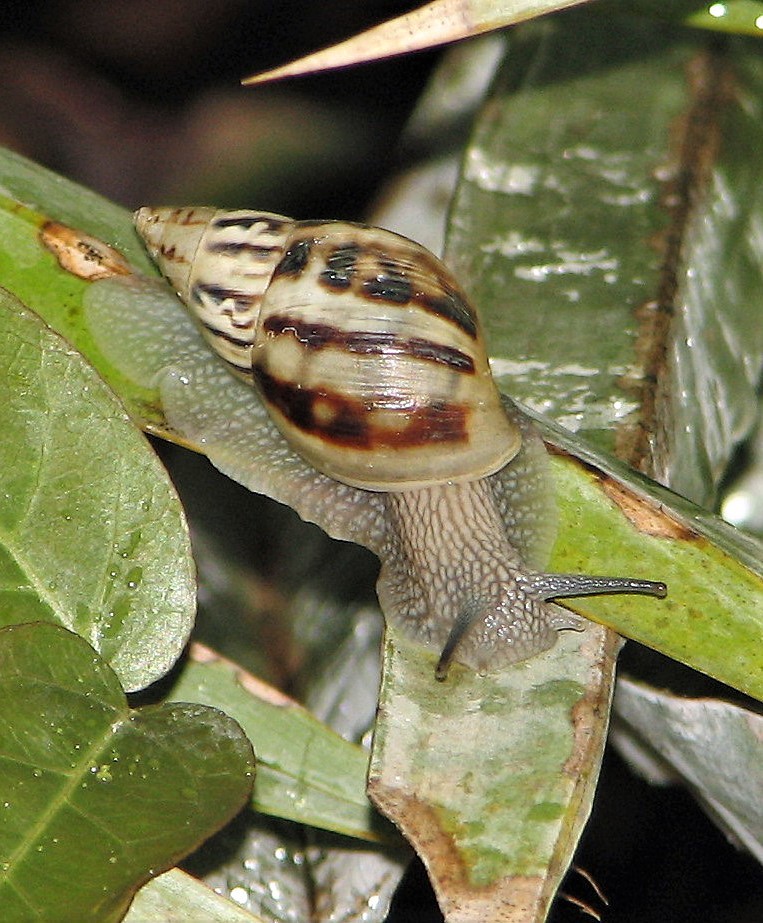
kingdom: Animalia
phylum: Mollusca
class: Gastropoda
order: Stylommatophora
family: Bulimulidae
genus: Drymaeus
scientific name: Drymaeus papyraceus
